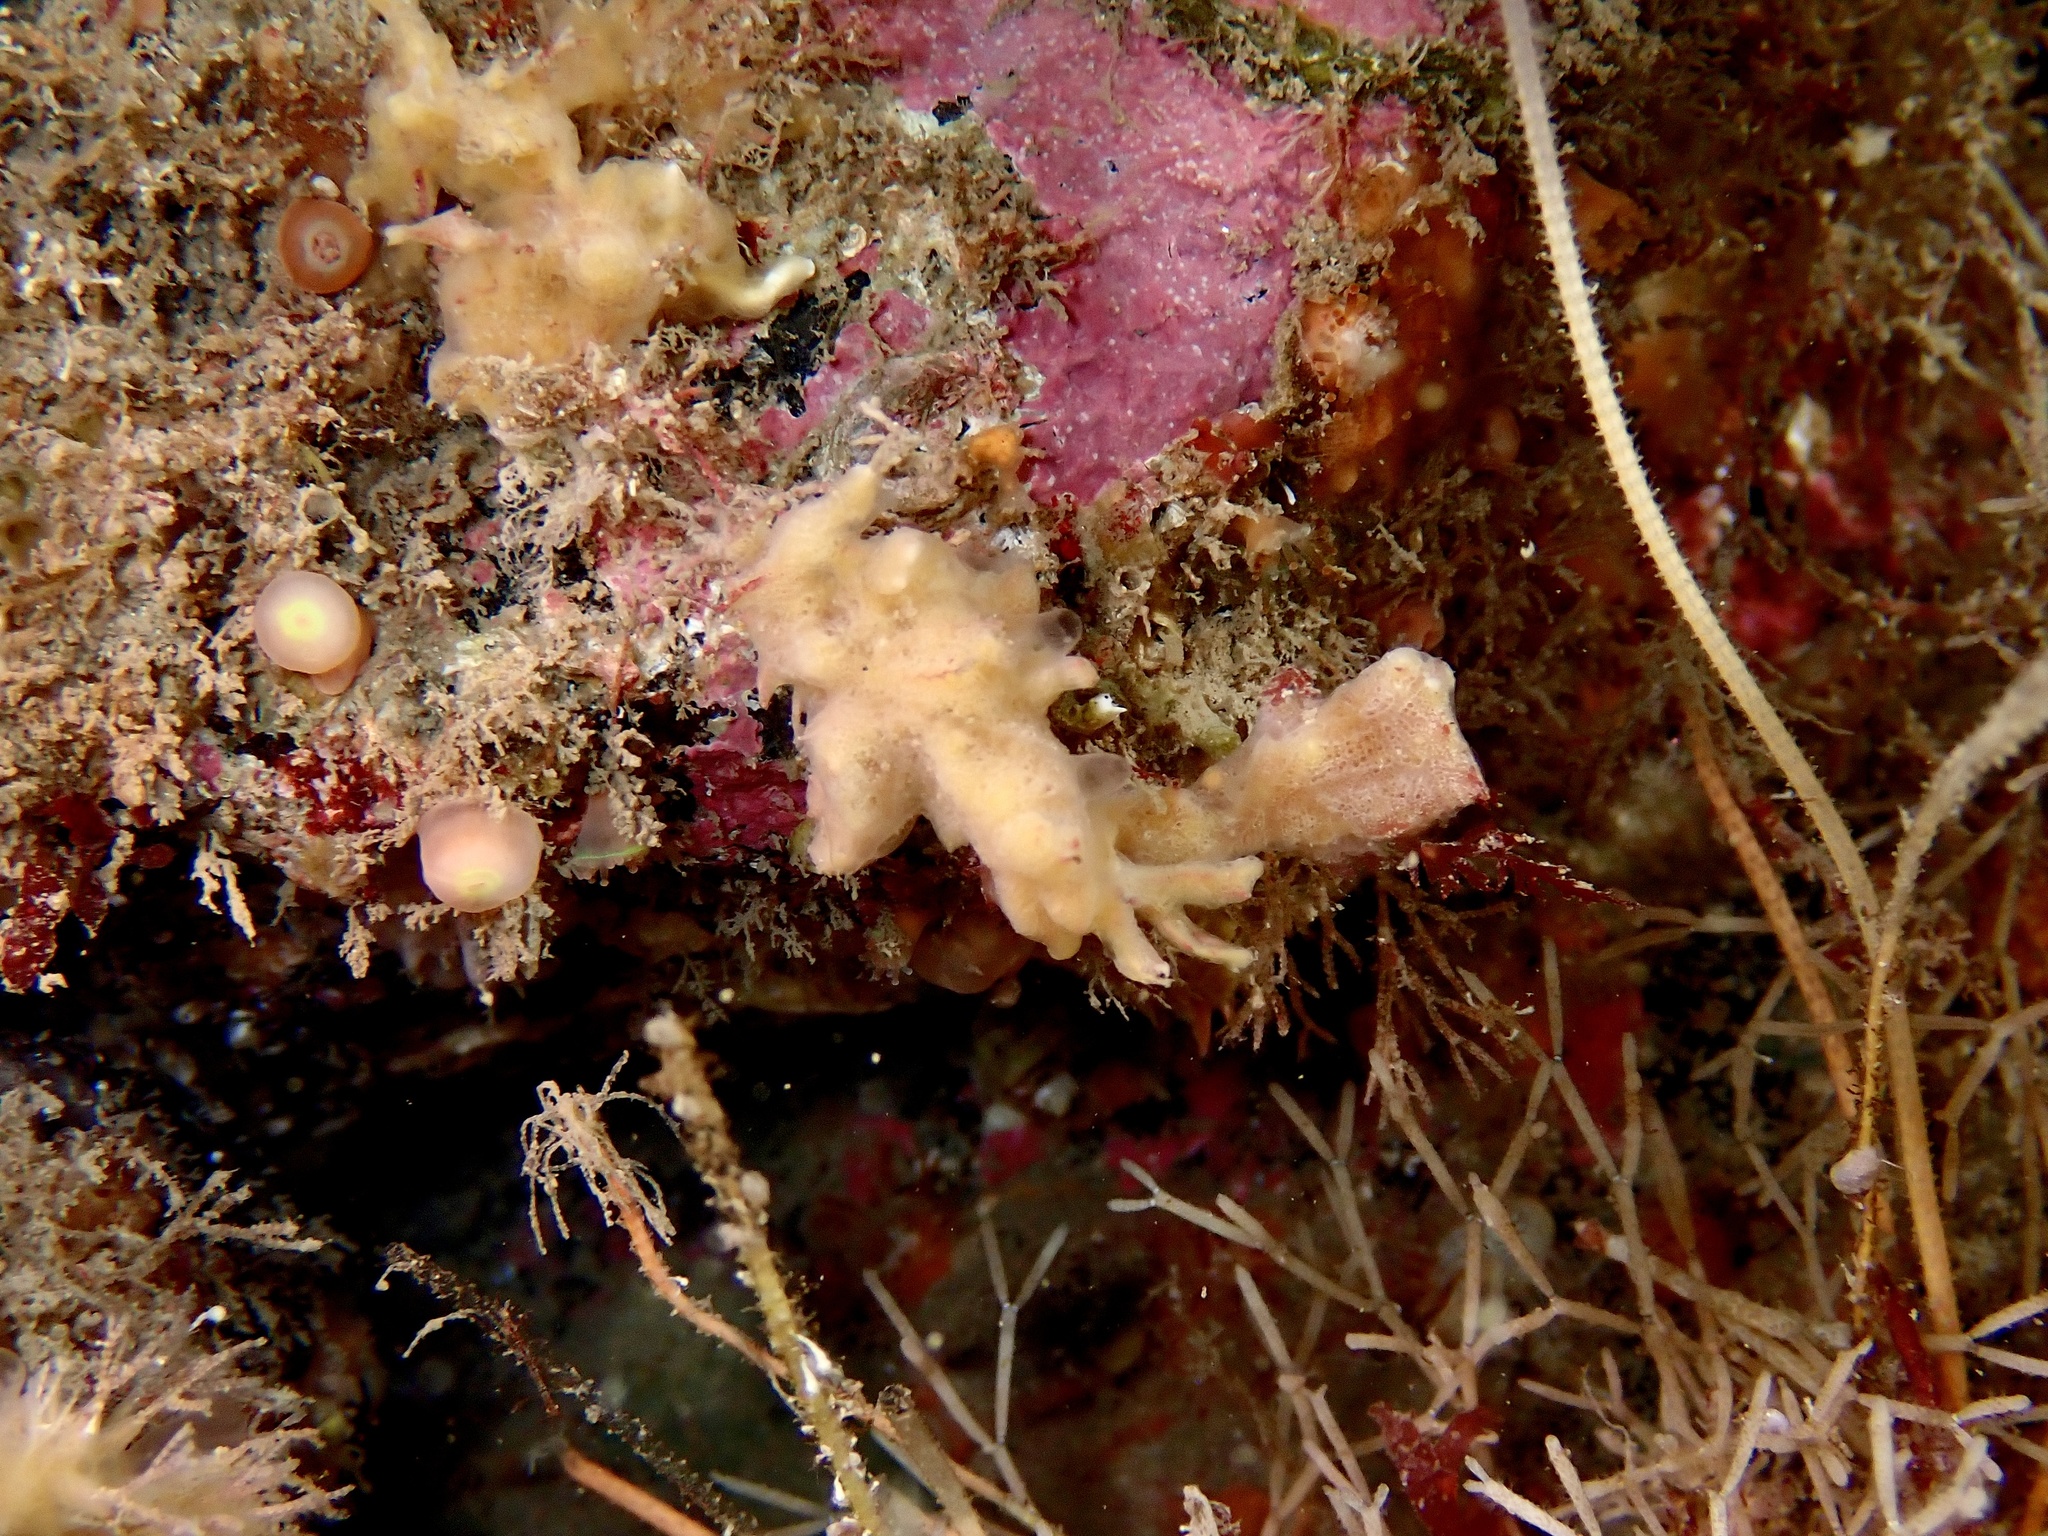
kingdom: Animalia
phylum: Porifera
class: Demospongiae
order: Poecilosclerida
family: Acarnidae
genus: Iophon
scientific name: Iophon hyndmani
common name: Hyndman's horny sponge
